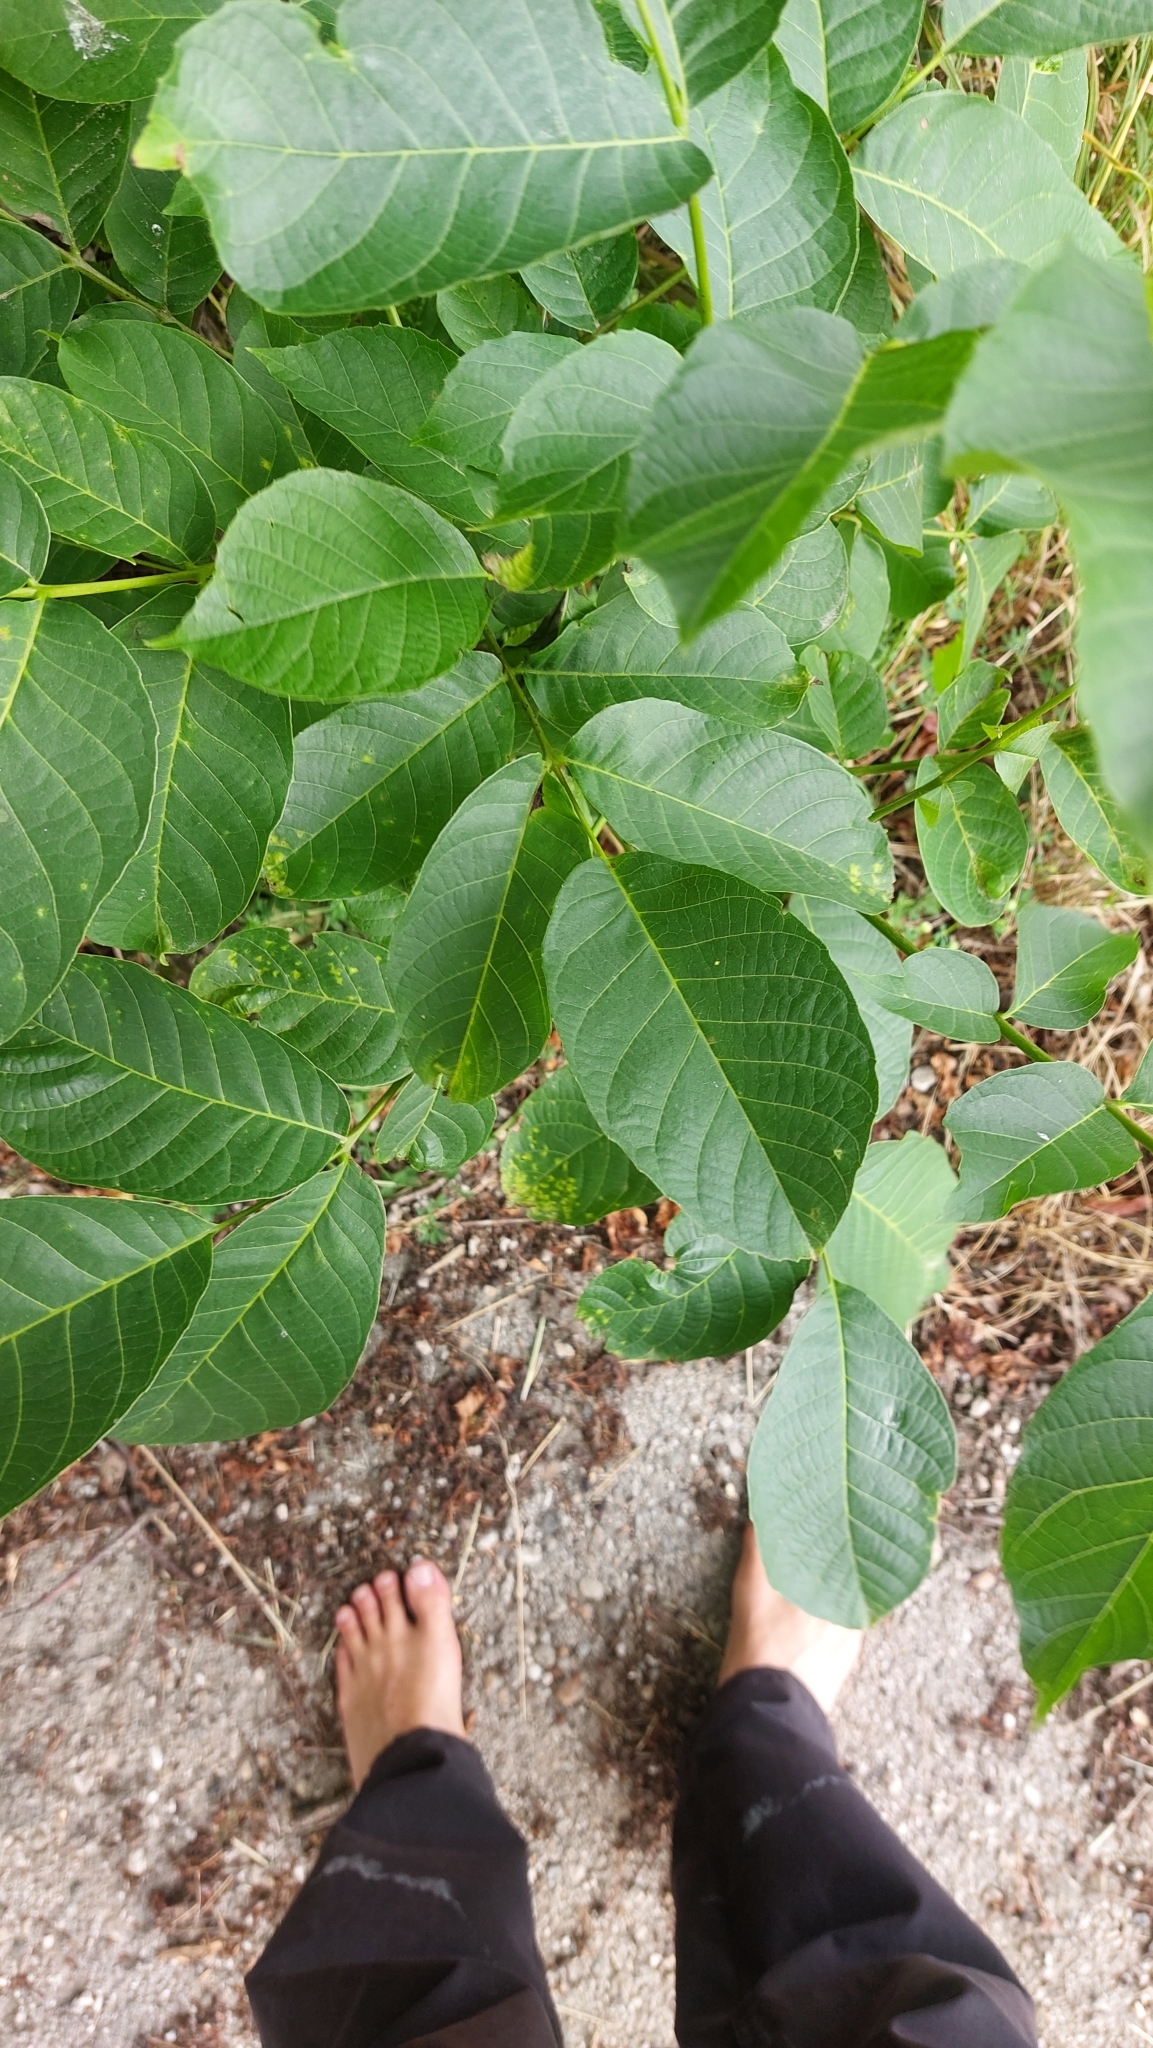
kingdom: Plantae
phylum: Tracheophyta
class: Magnoliopsida
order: Fagales
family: Juglandaceae
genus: Juglans
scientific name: Juglans regia
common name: Walnut
